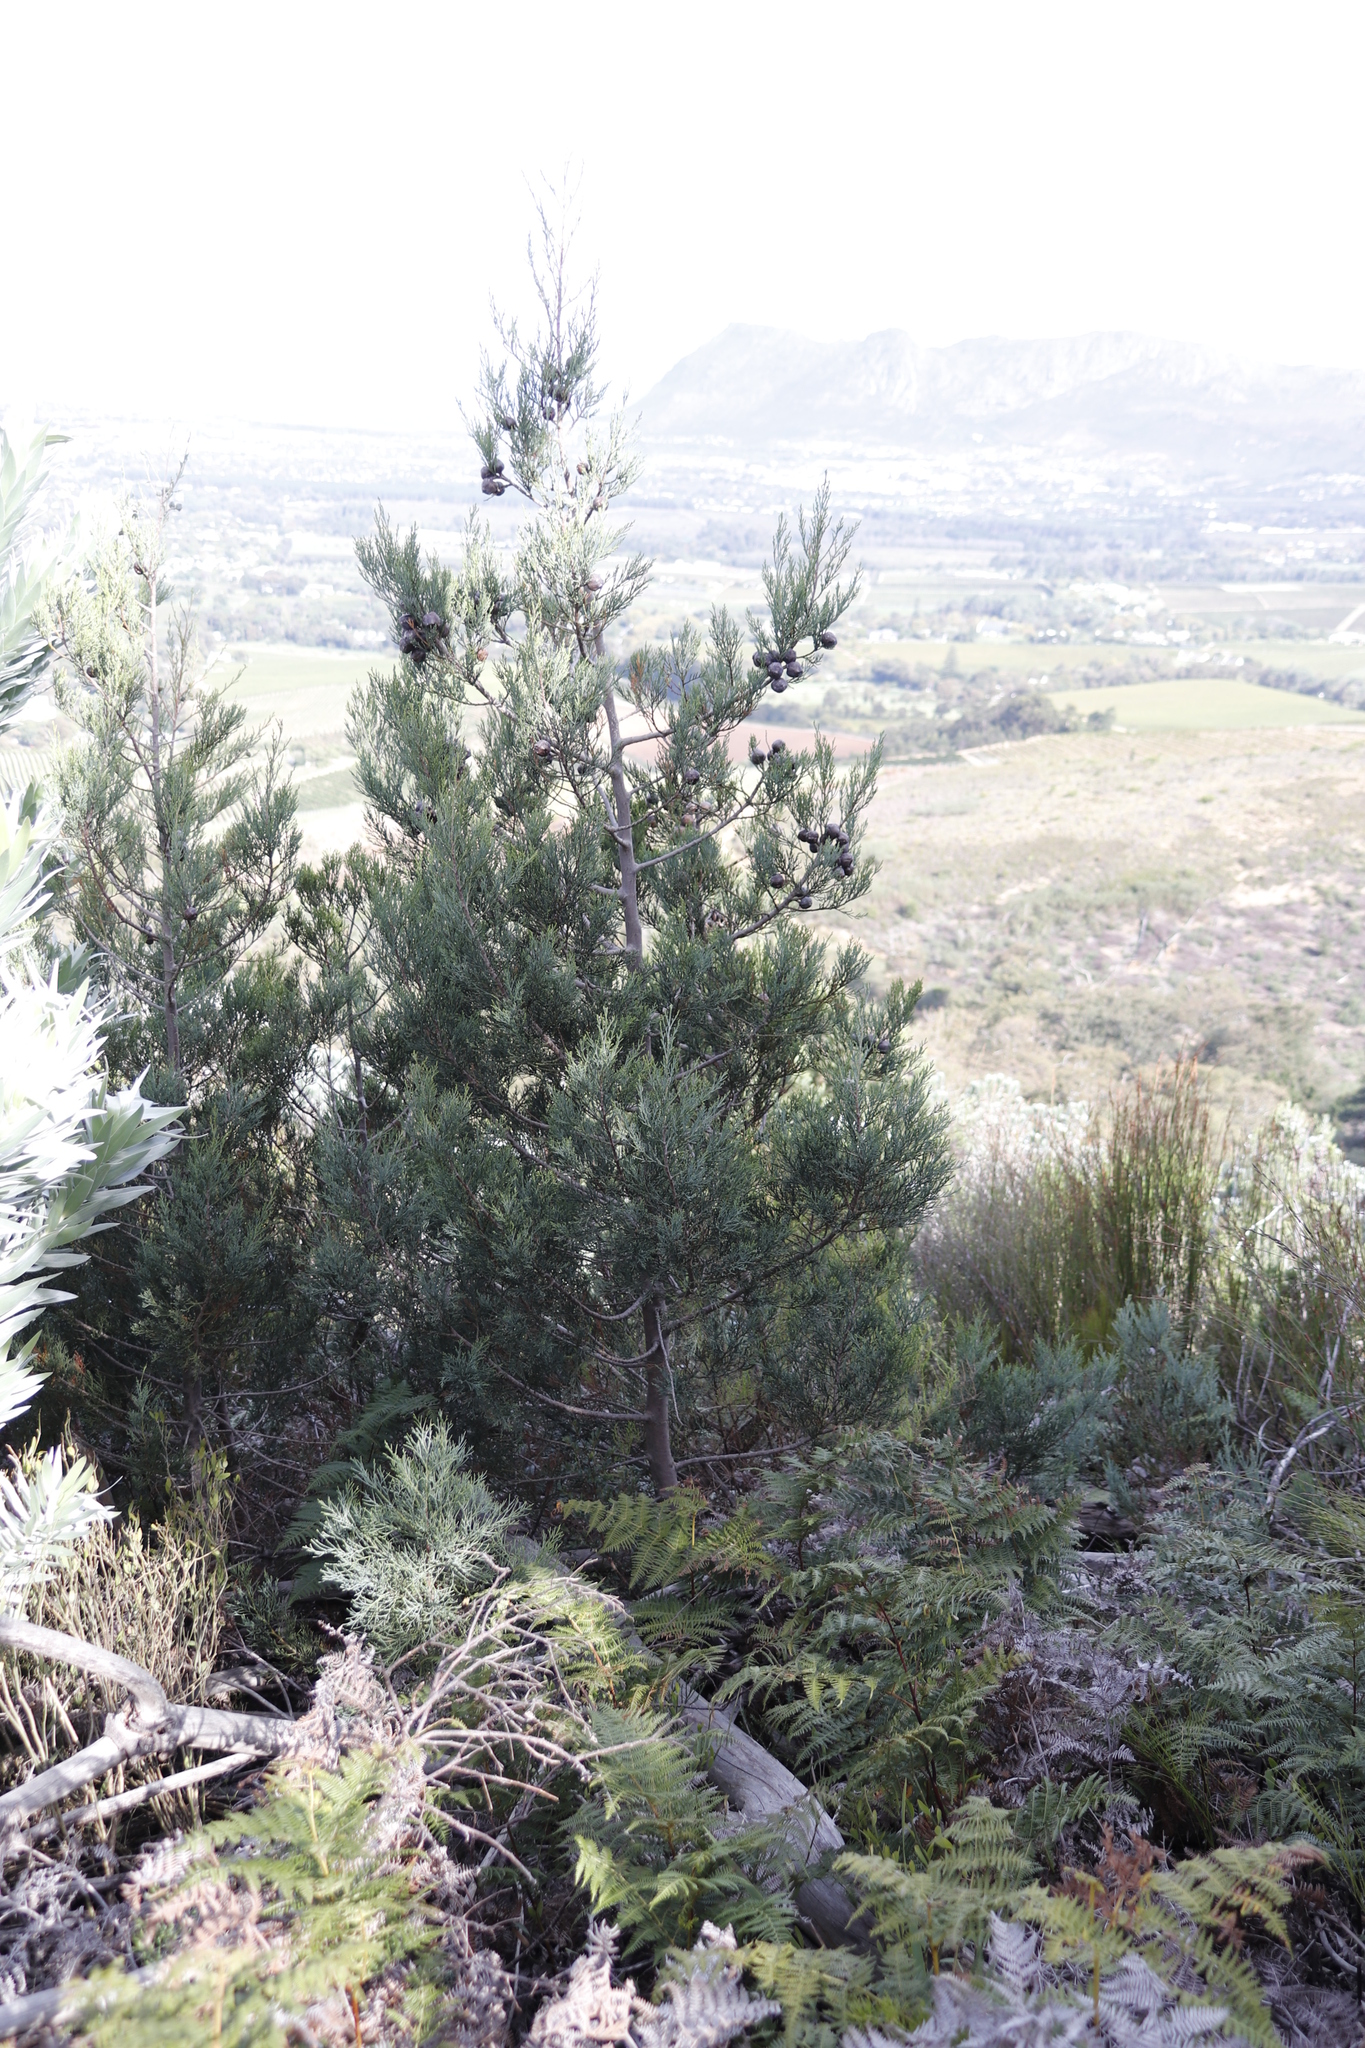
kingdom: Plantae
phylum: Tracheophyta
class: Pinopsida
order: Pinales
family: Cupressaceae
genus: Widdringtonia
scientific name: Widdringtonia nodiflora
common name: Cape cypress
